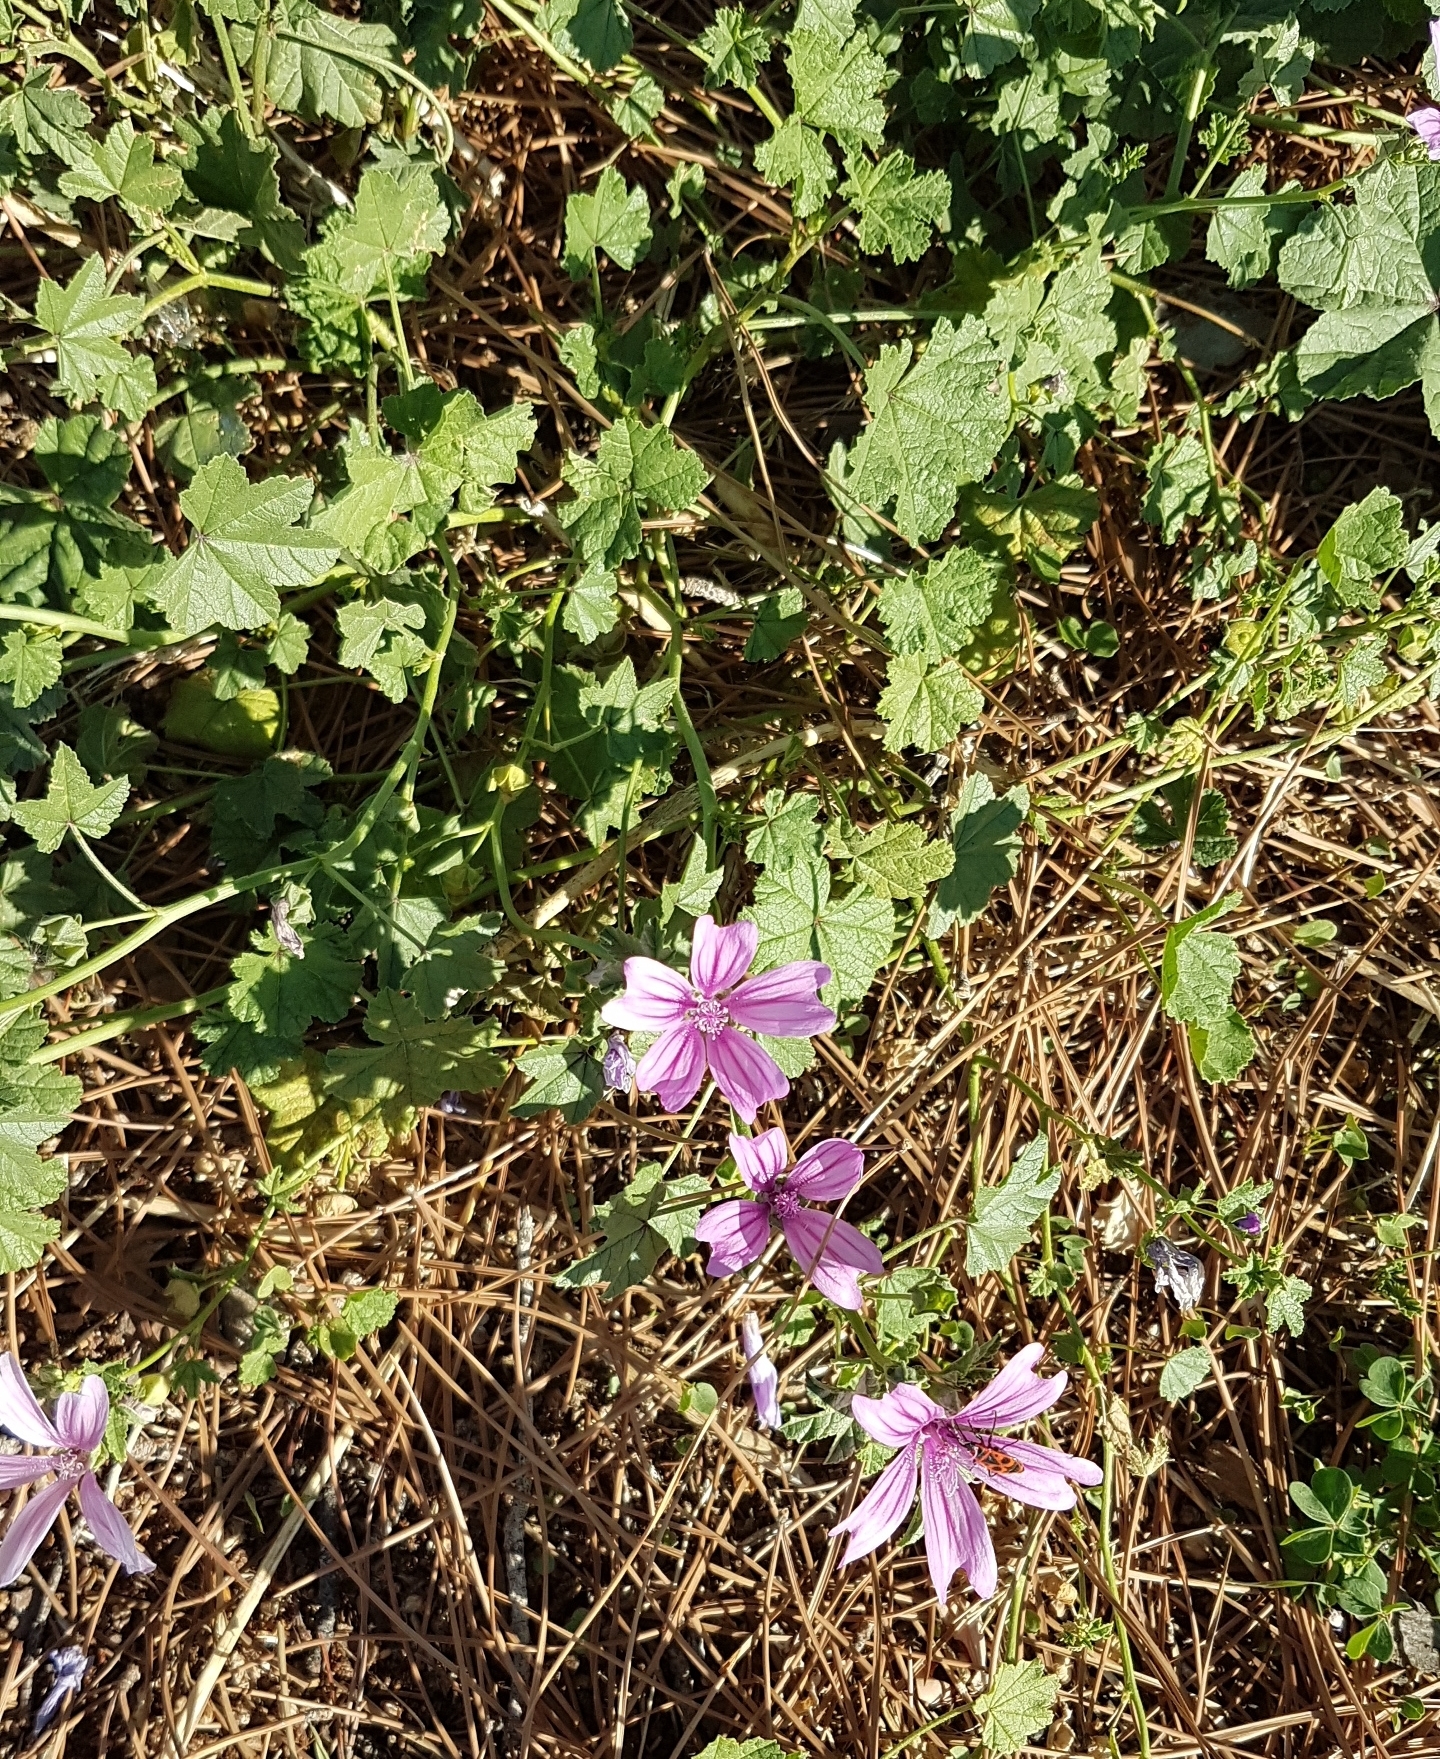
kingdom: Plantae
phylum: Tracheophyta
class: Magnoliopsida
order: Malvales
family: Malvaceae
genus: Malva
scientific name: Malva sylvestris
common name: Common mallow
